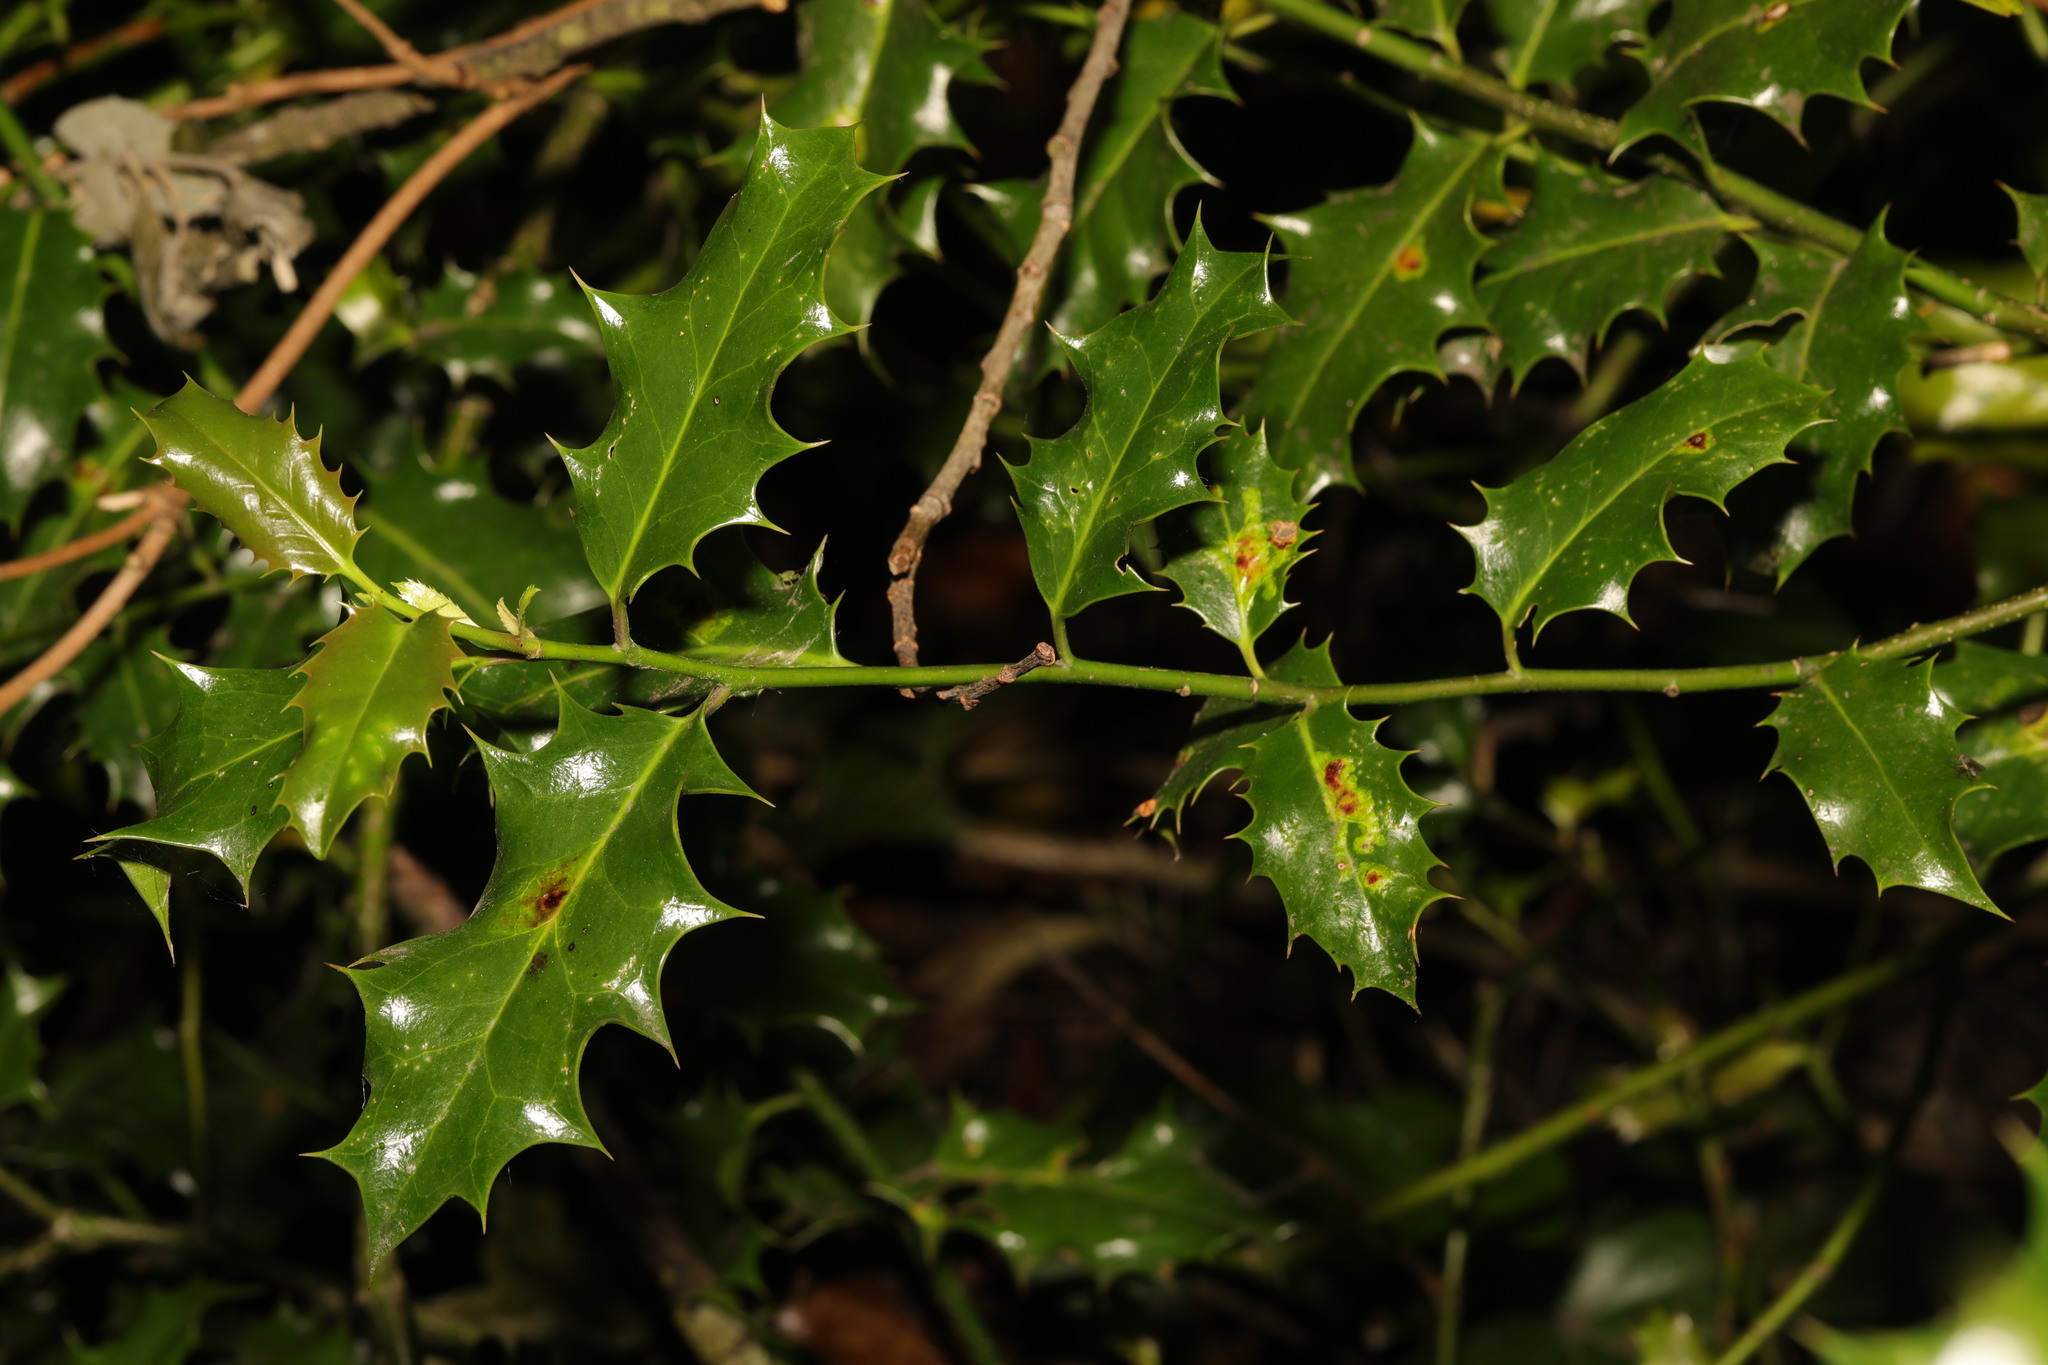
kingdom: Plantae
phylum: Tracheophyta
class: Magnoliopsida
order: Aquifoliales
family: Aquifoliaceae
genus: Ilex
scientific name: Ilex aquifolium
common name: English holly
